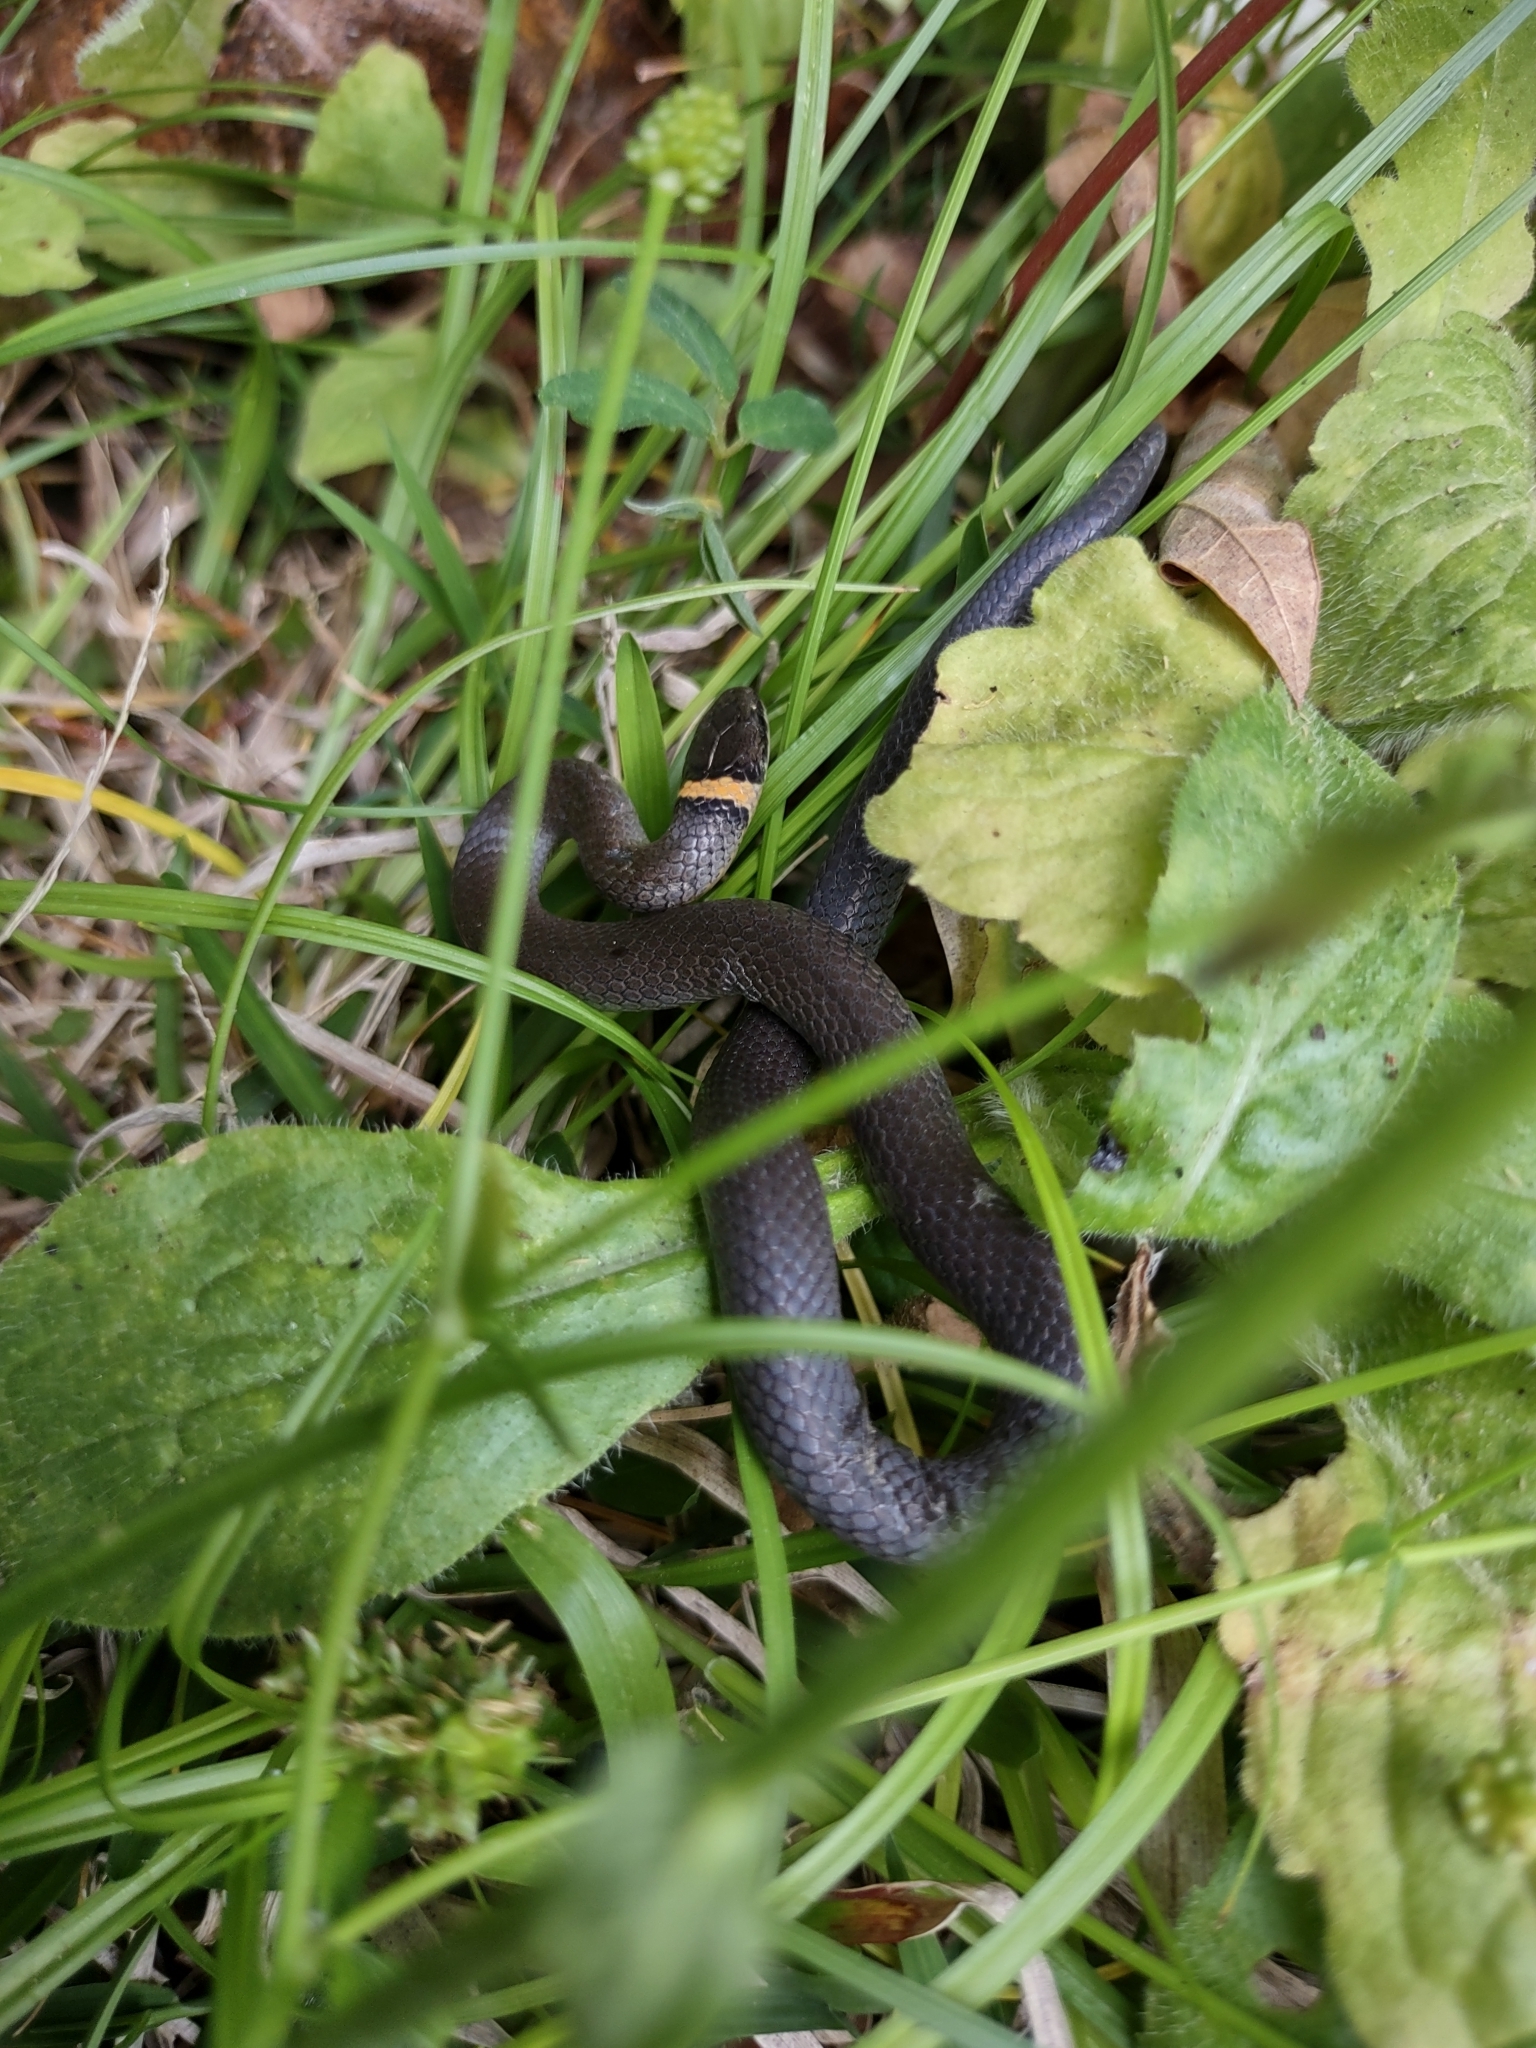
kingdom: Animalia
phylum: Chordata
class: Squamata
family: Colubridae
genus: Diadophis
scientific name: Diadophis punctatus
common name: Ringneck snake
